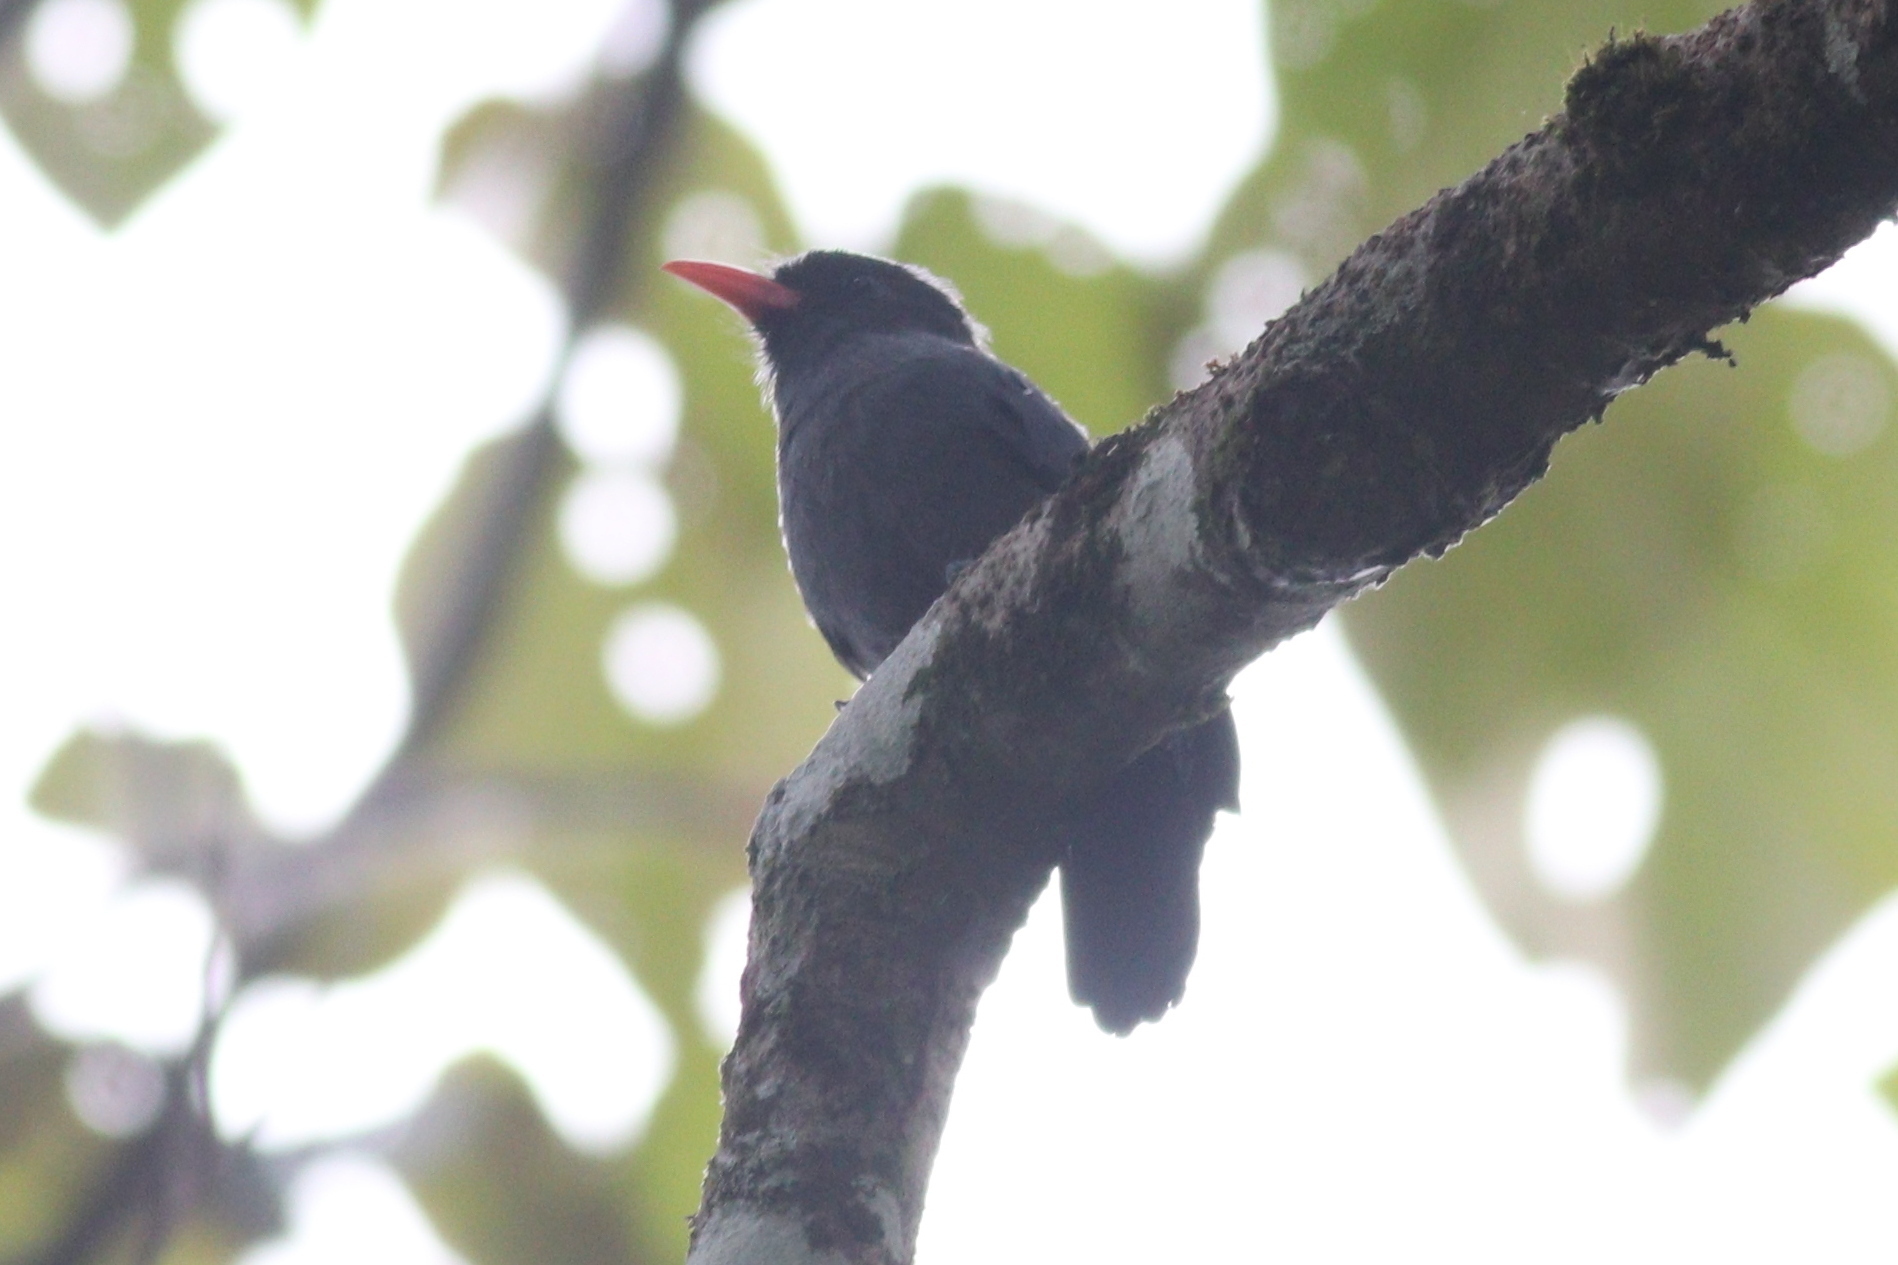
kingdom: Animalia
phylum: Chordata
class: Aves
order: Piciformes
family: Bucconidae
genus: Monasa
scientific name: Monasa nigrifrons
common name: Black-fronted nunbird
